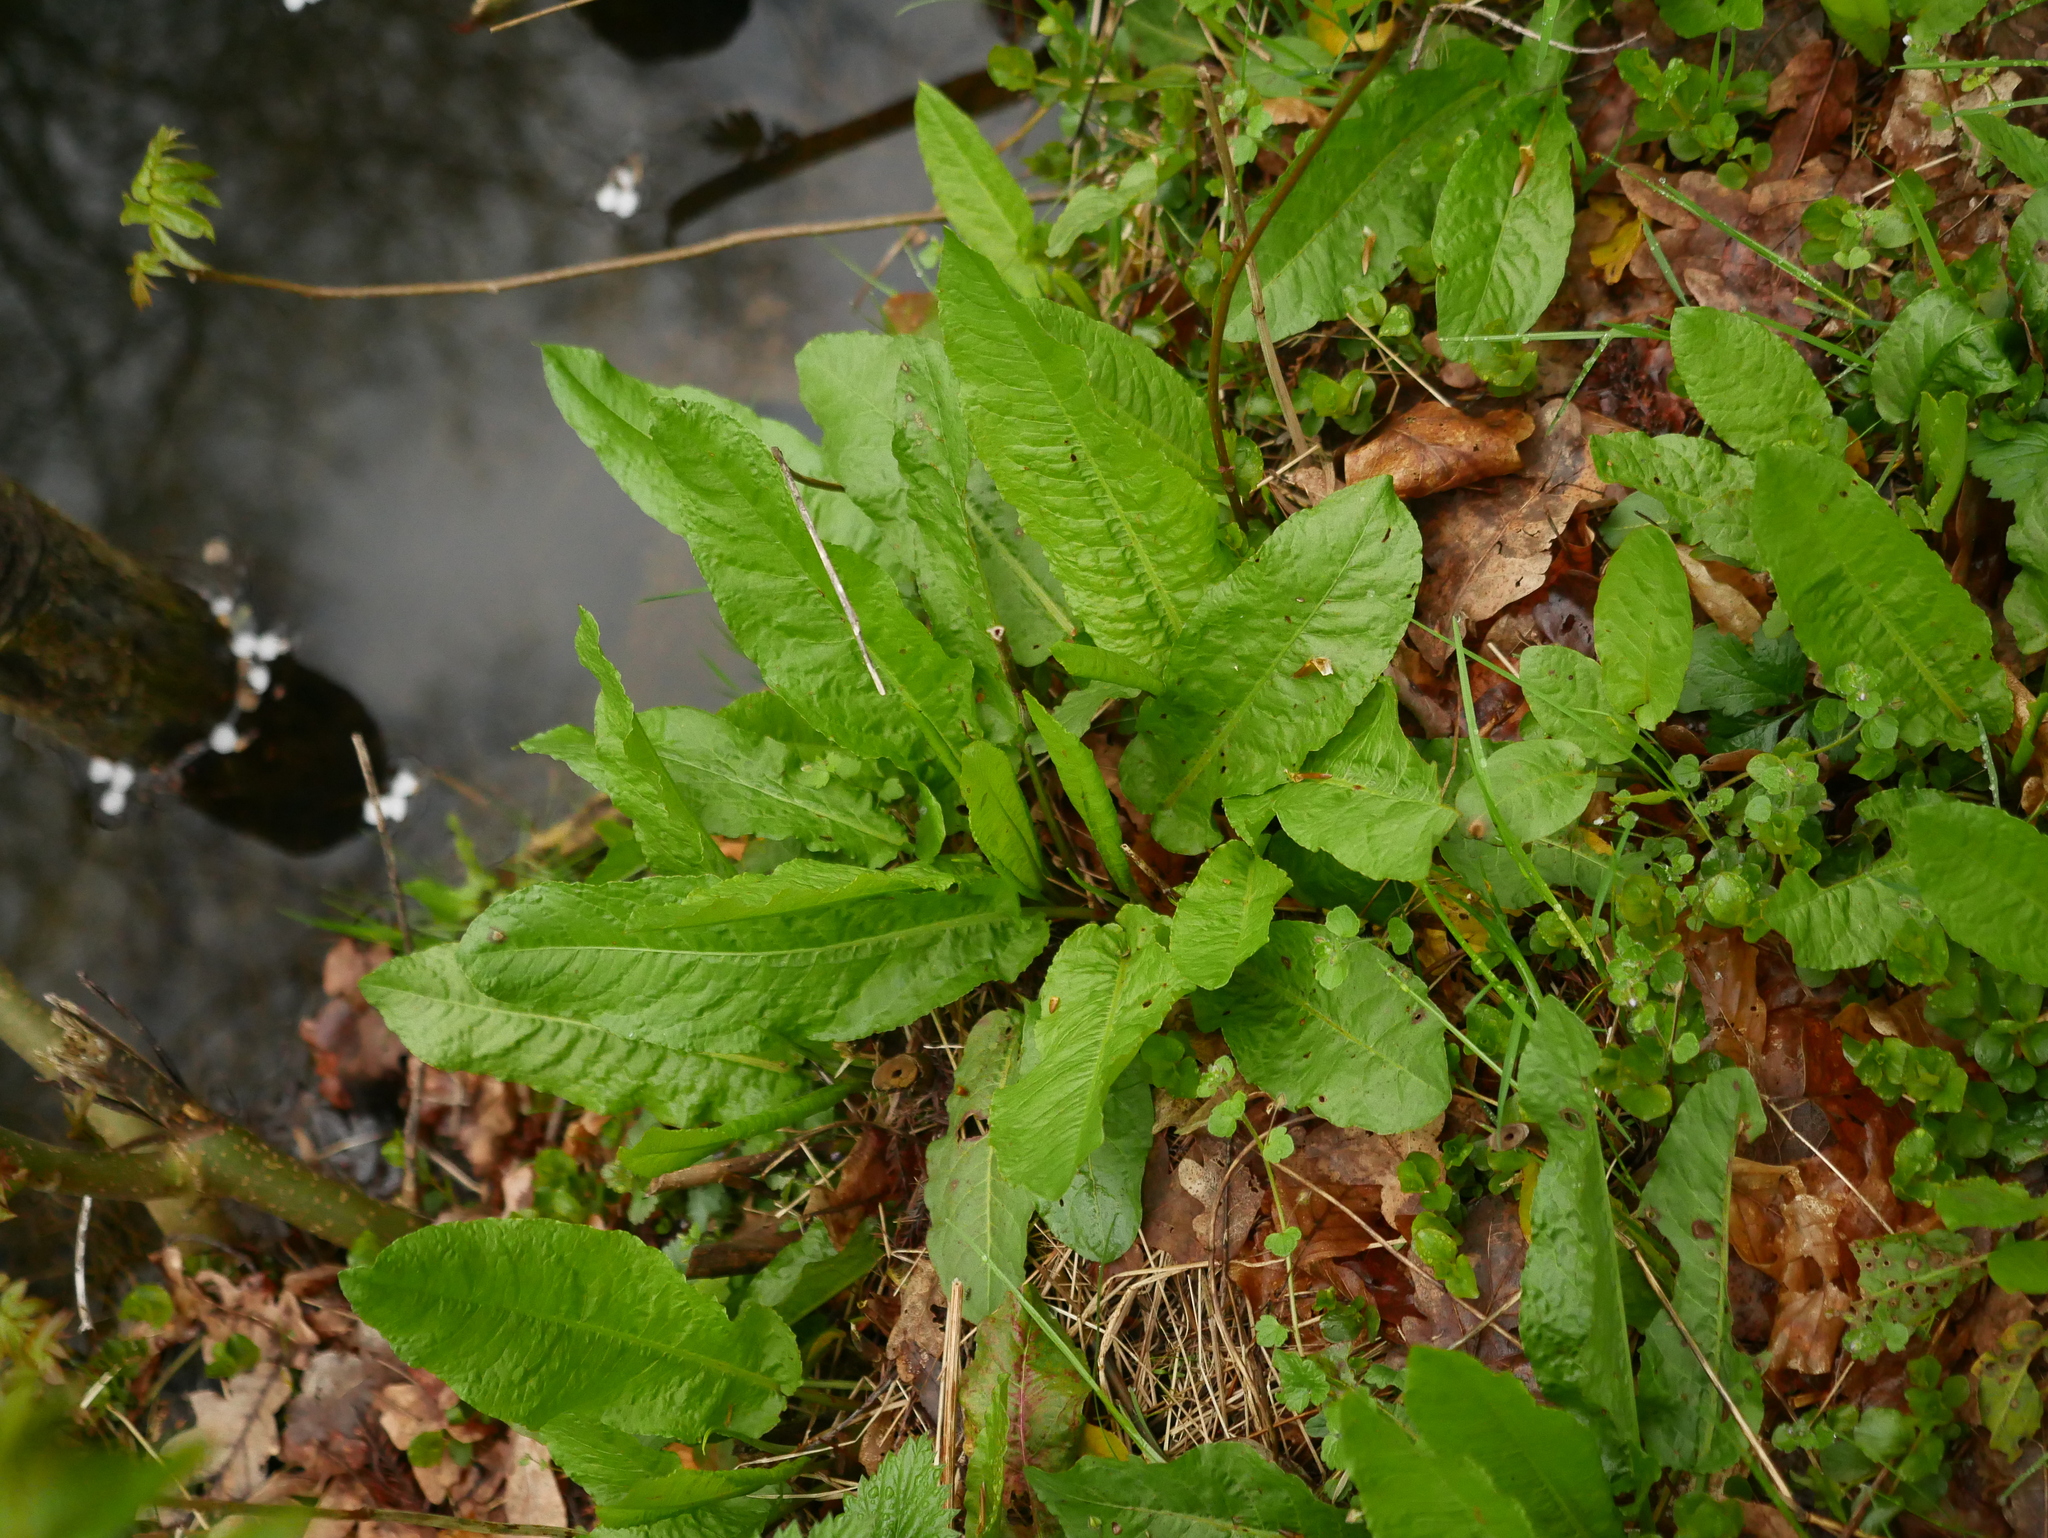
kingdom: Plantae
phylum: Tracheophyta
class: Magnoliopsida
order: Caryophyllales
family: Polygonaceae
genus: Rumex
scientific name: Rumex obtusifolius
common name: Bitter dock
